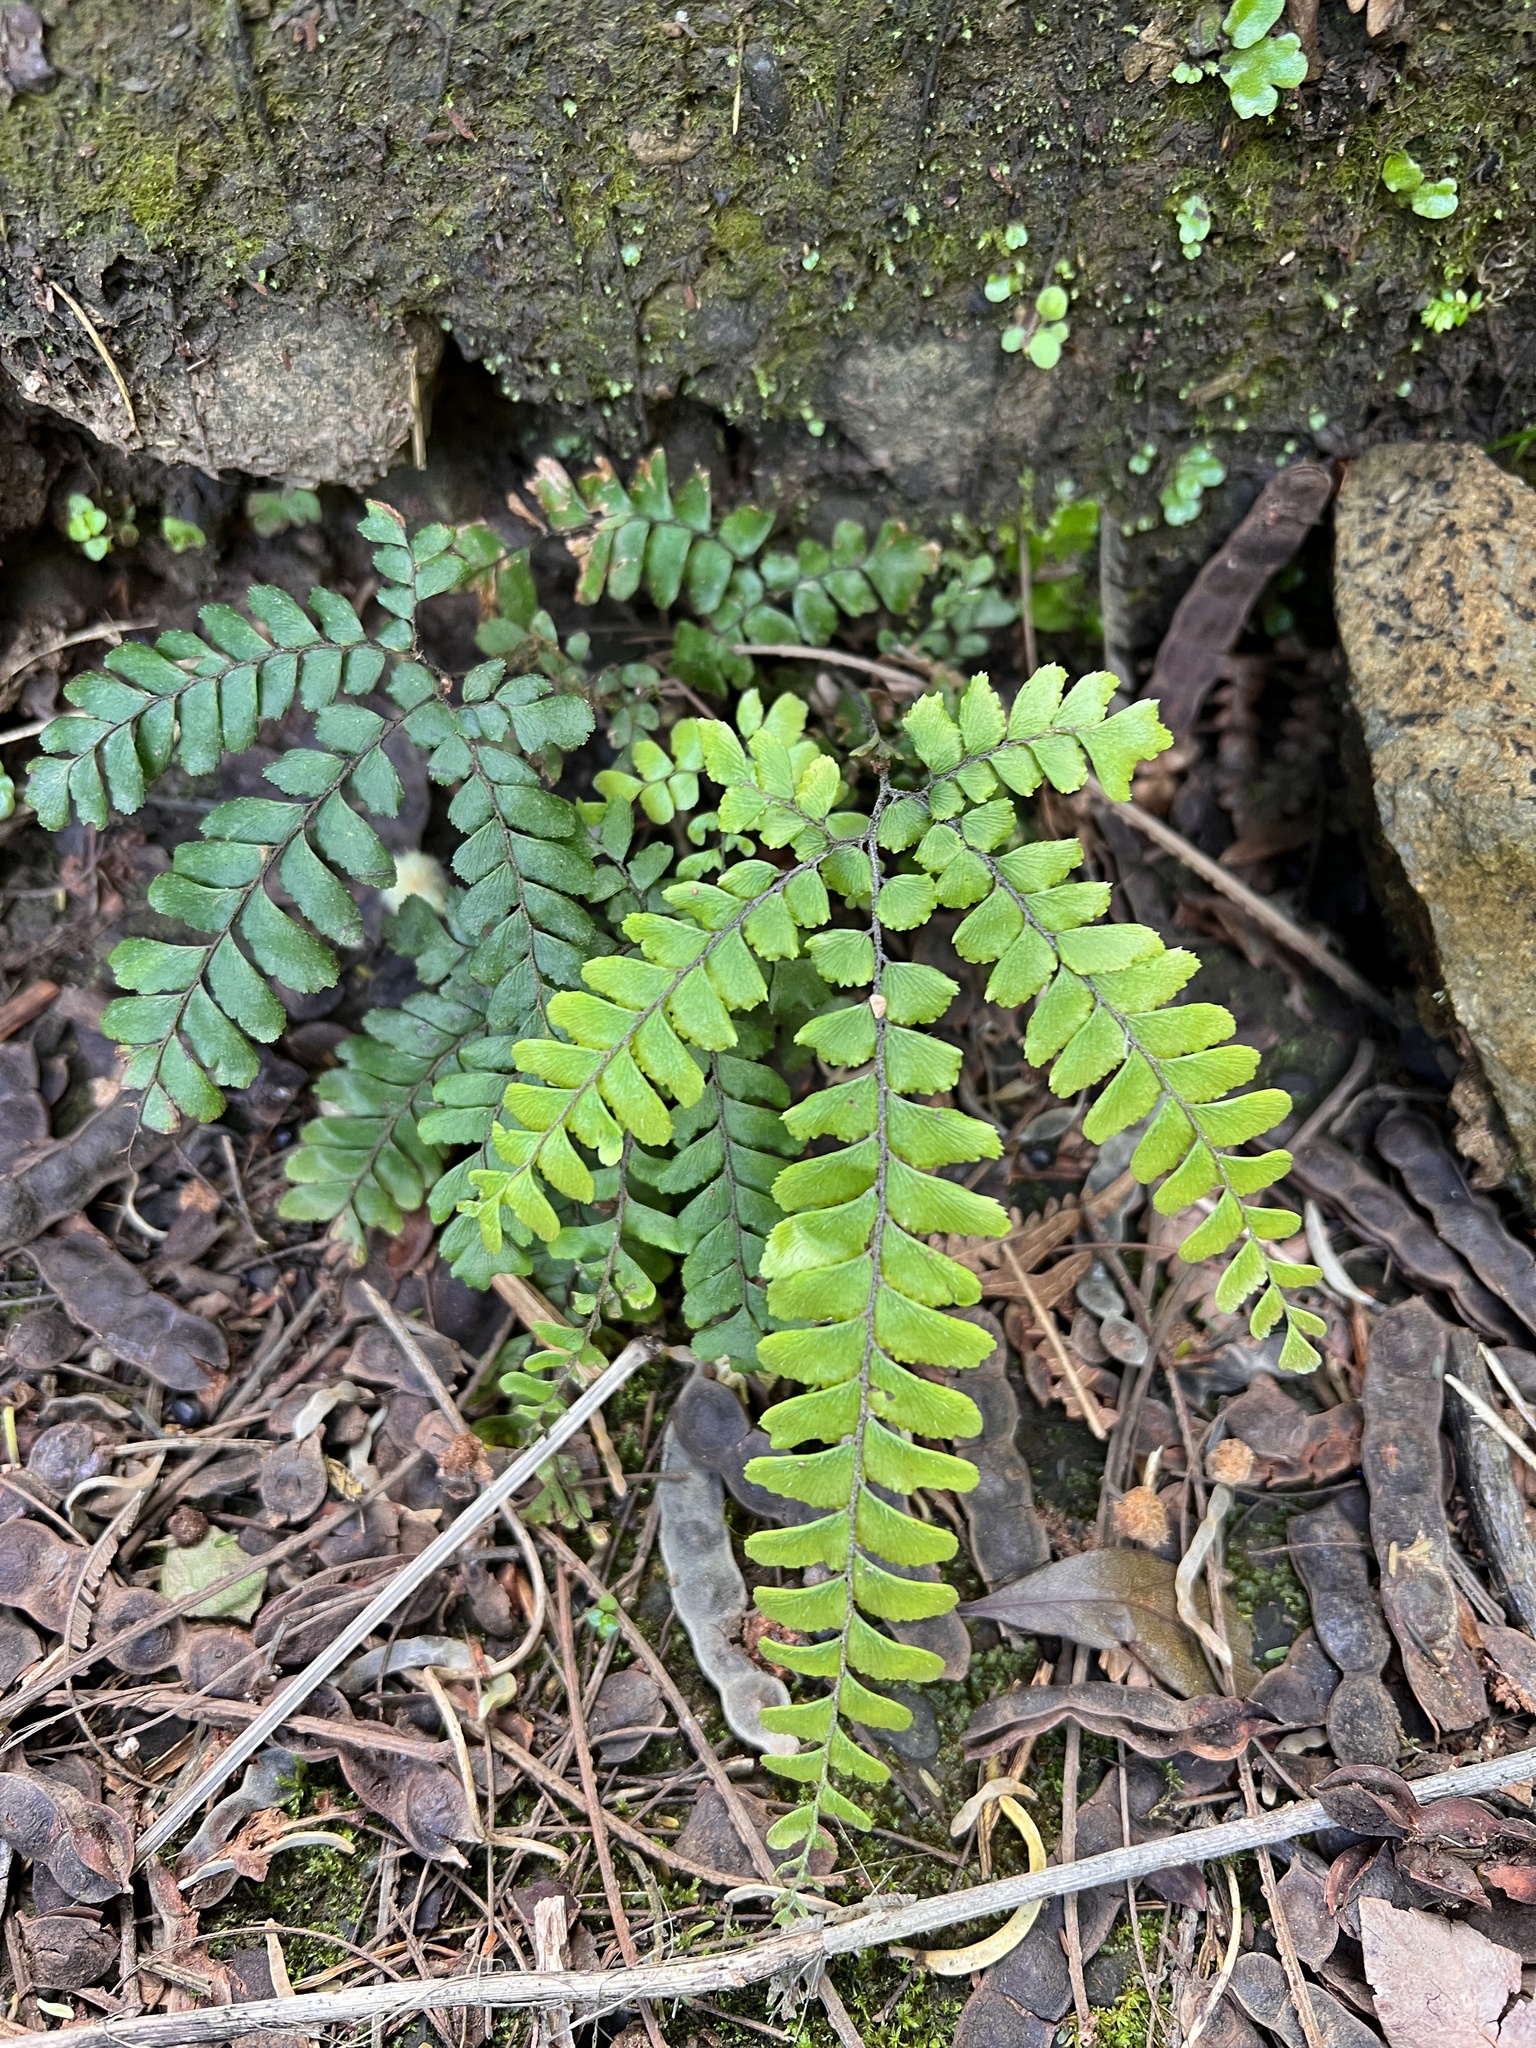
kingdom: Plantae
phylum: Tracheophyta
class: Polypodiopsida
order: Polypodiales
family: Pteridaceae
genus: Adiantum
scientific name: Adiantum hispidulum
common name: Rough maidenhair
